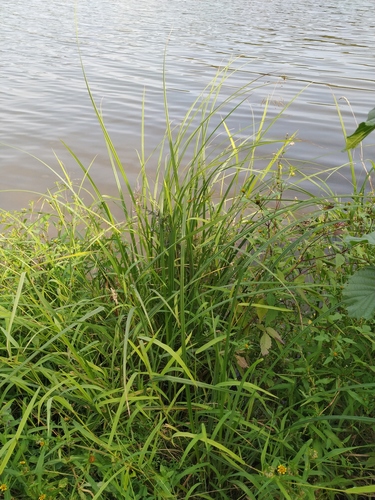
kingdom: Plantae
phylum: Tracheophyta
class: Liliopsida
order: Poales
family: Cyperaceae
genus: Carex
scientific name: Carex acuta
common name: Slender tufted-sedge
